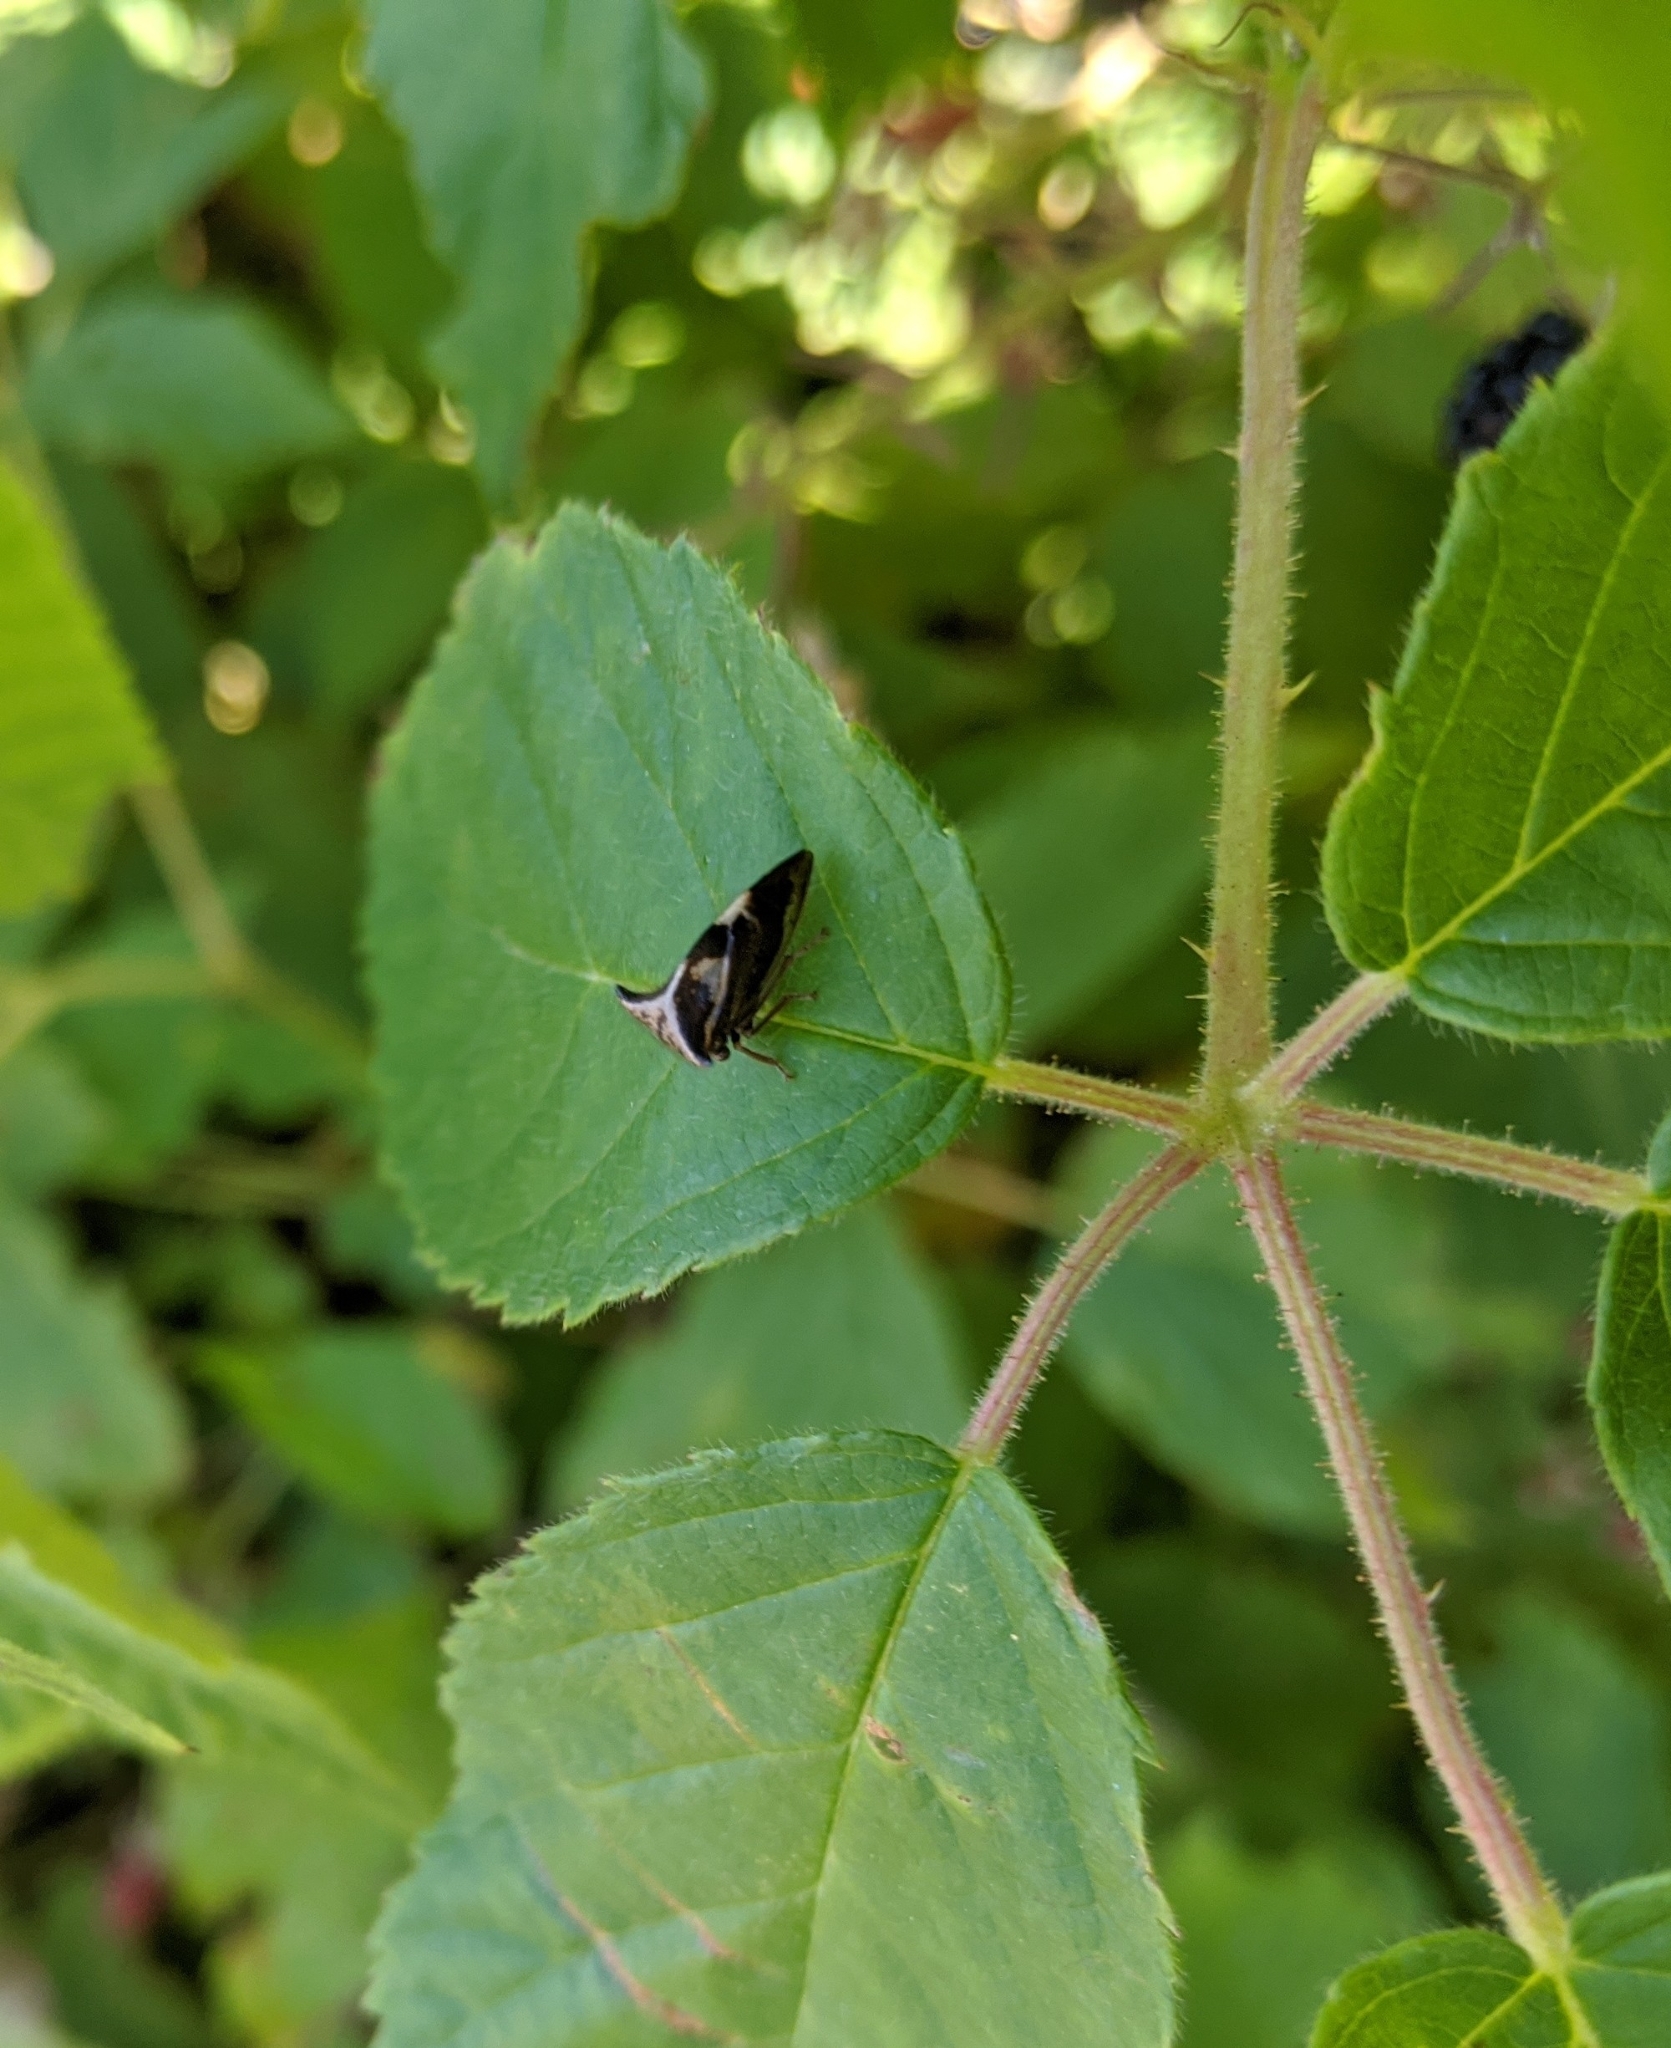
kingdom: Animalia
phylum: Arthropoda
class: Insecta
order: Hemiptera
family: Membracidae
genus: Stictocephala
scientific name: Stictocephala diceros
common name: Two-horned treehopper
